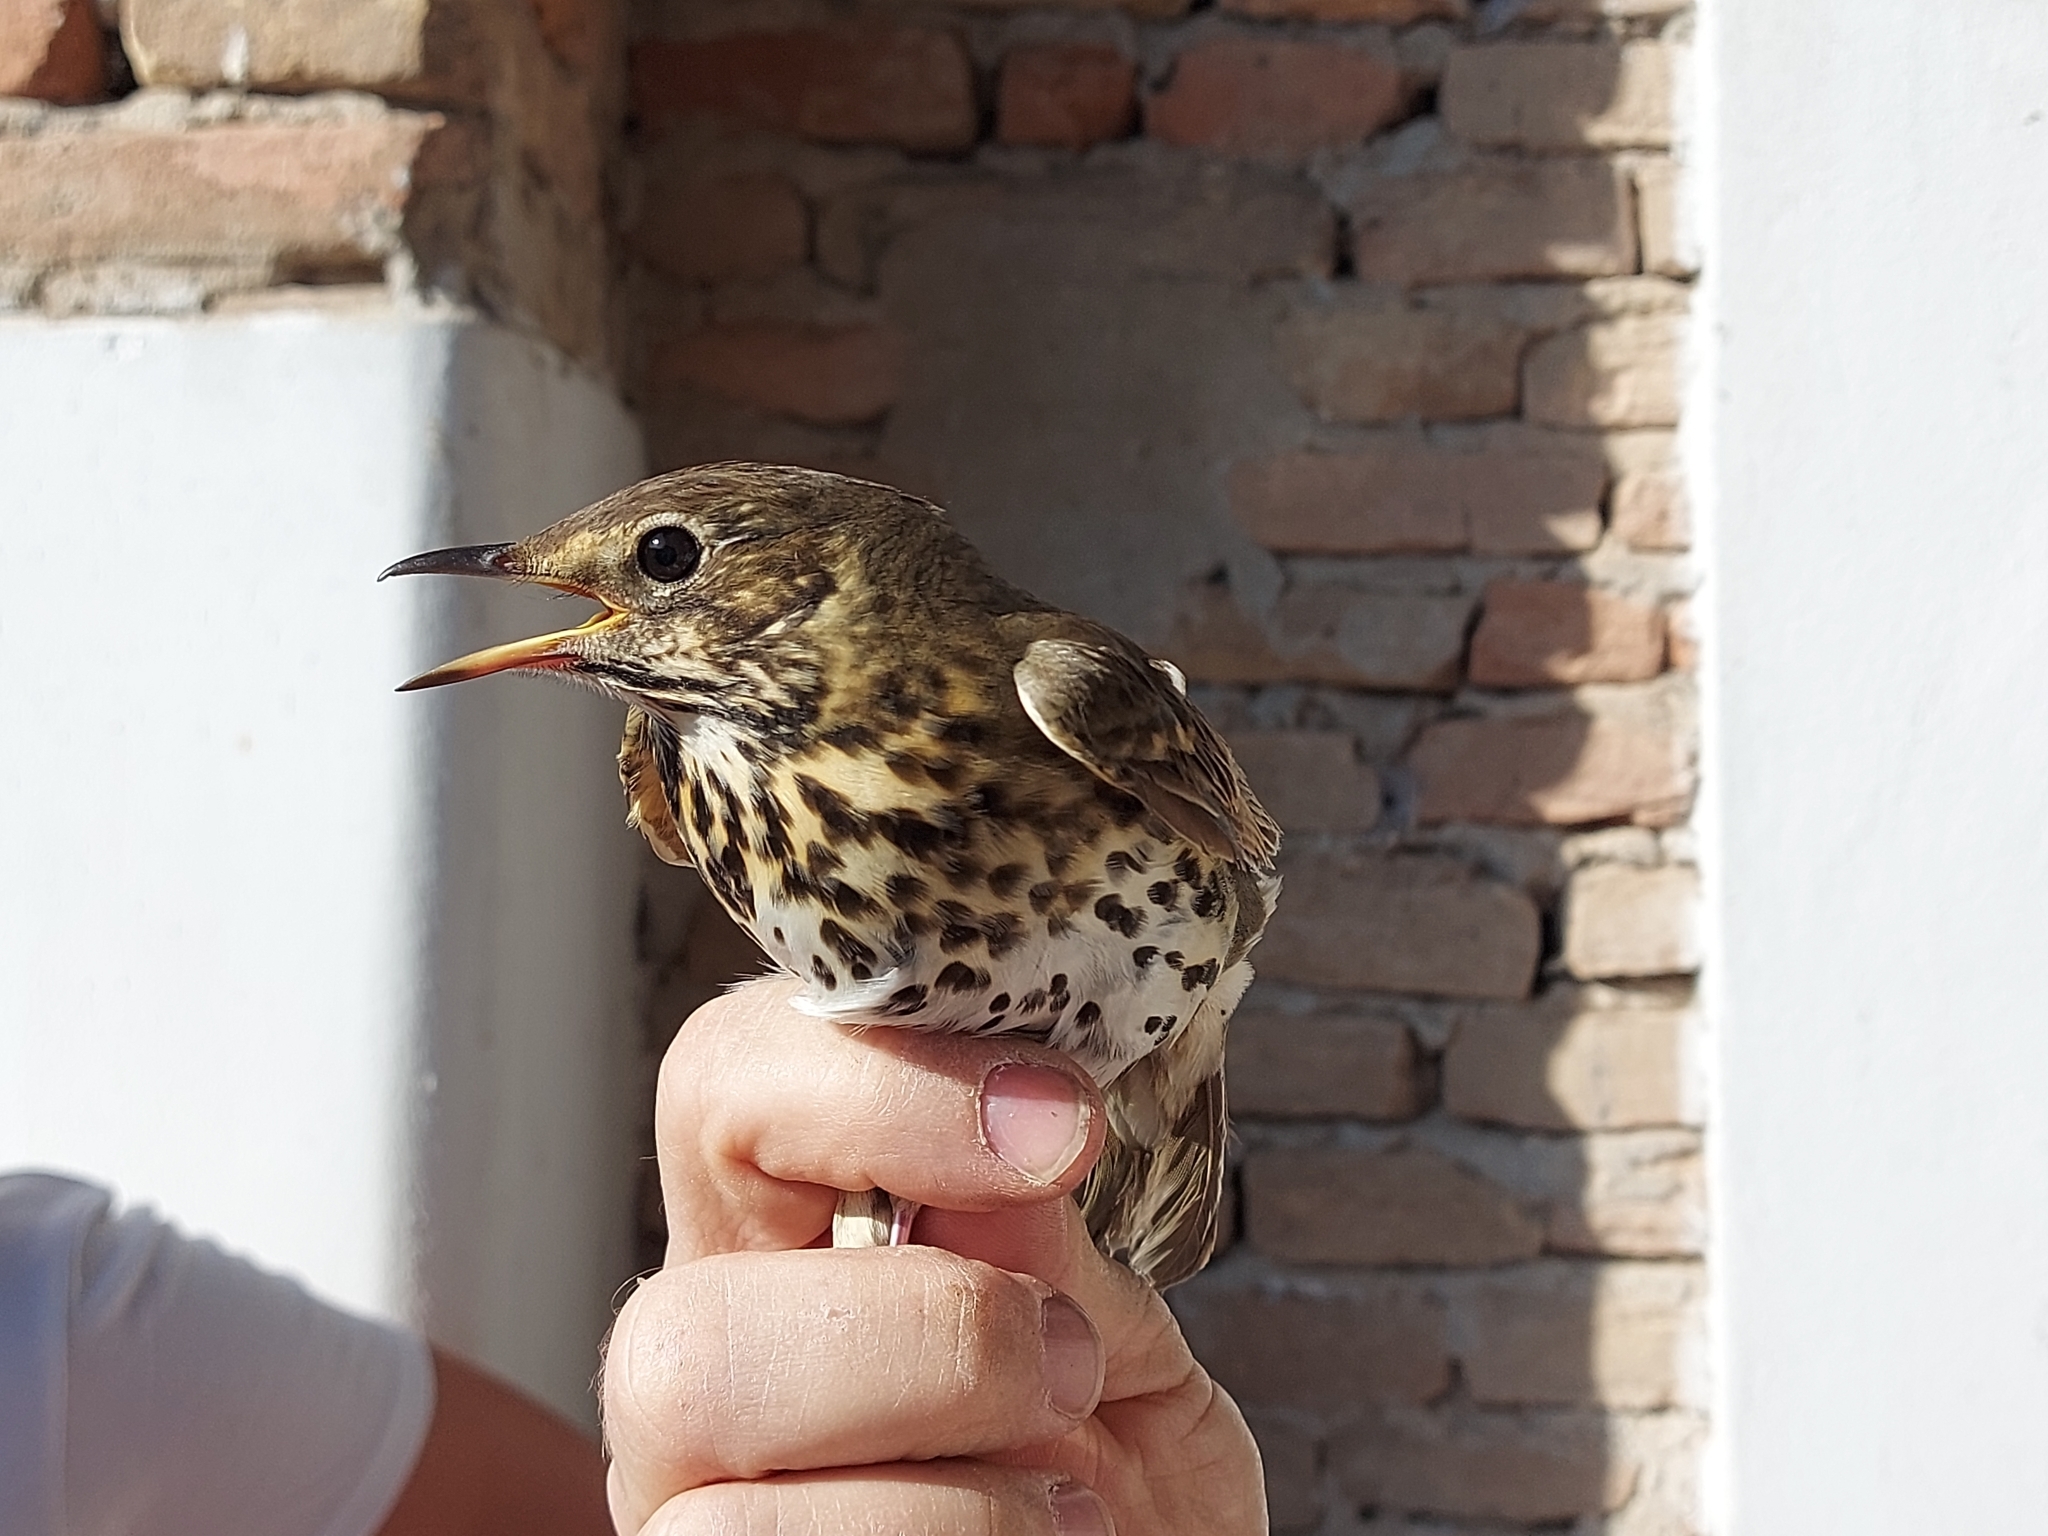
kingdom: Animalia
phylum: Chordata
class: Aves
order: Passeriformes
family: Turdidae
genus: Turdus
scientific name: Turdus philomelos
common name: Song thrush
